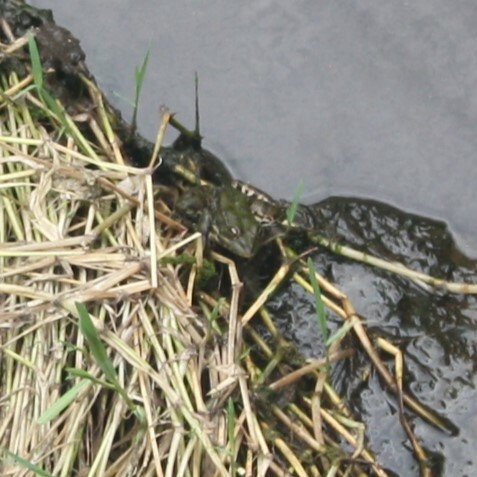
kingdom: Animalia
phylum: Chordata
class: Amphibia
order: Anura
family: Ranidae
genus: Pelophylax
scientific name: Pelophylax
